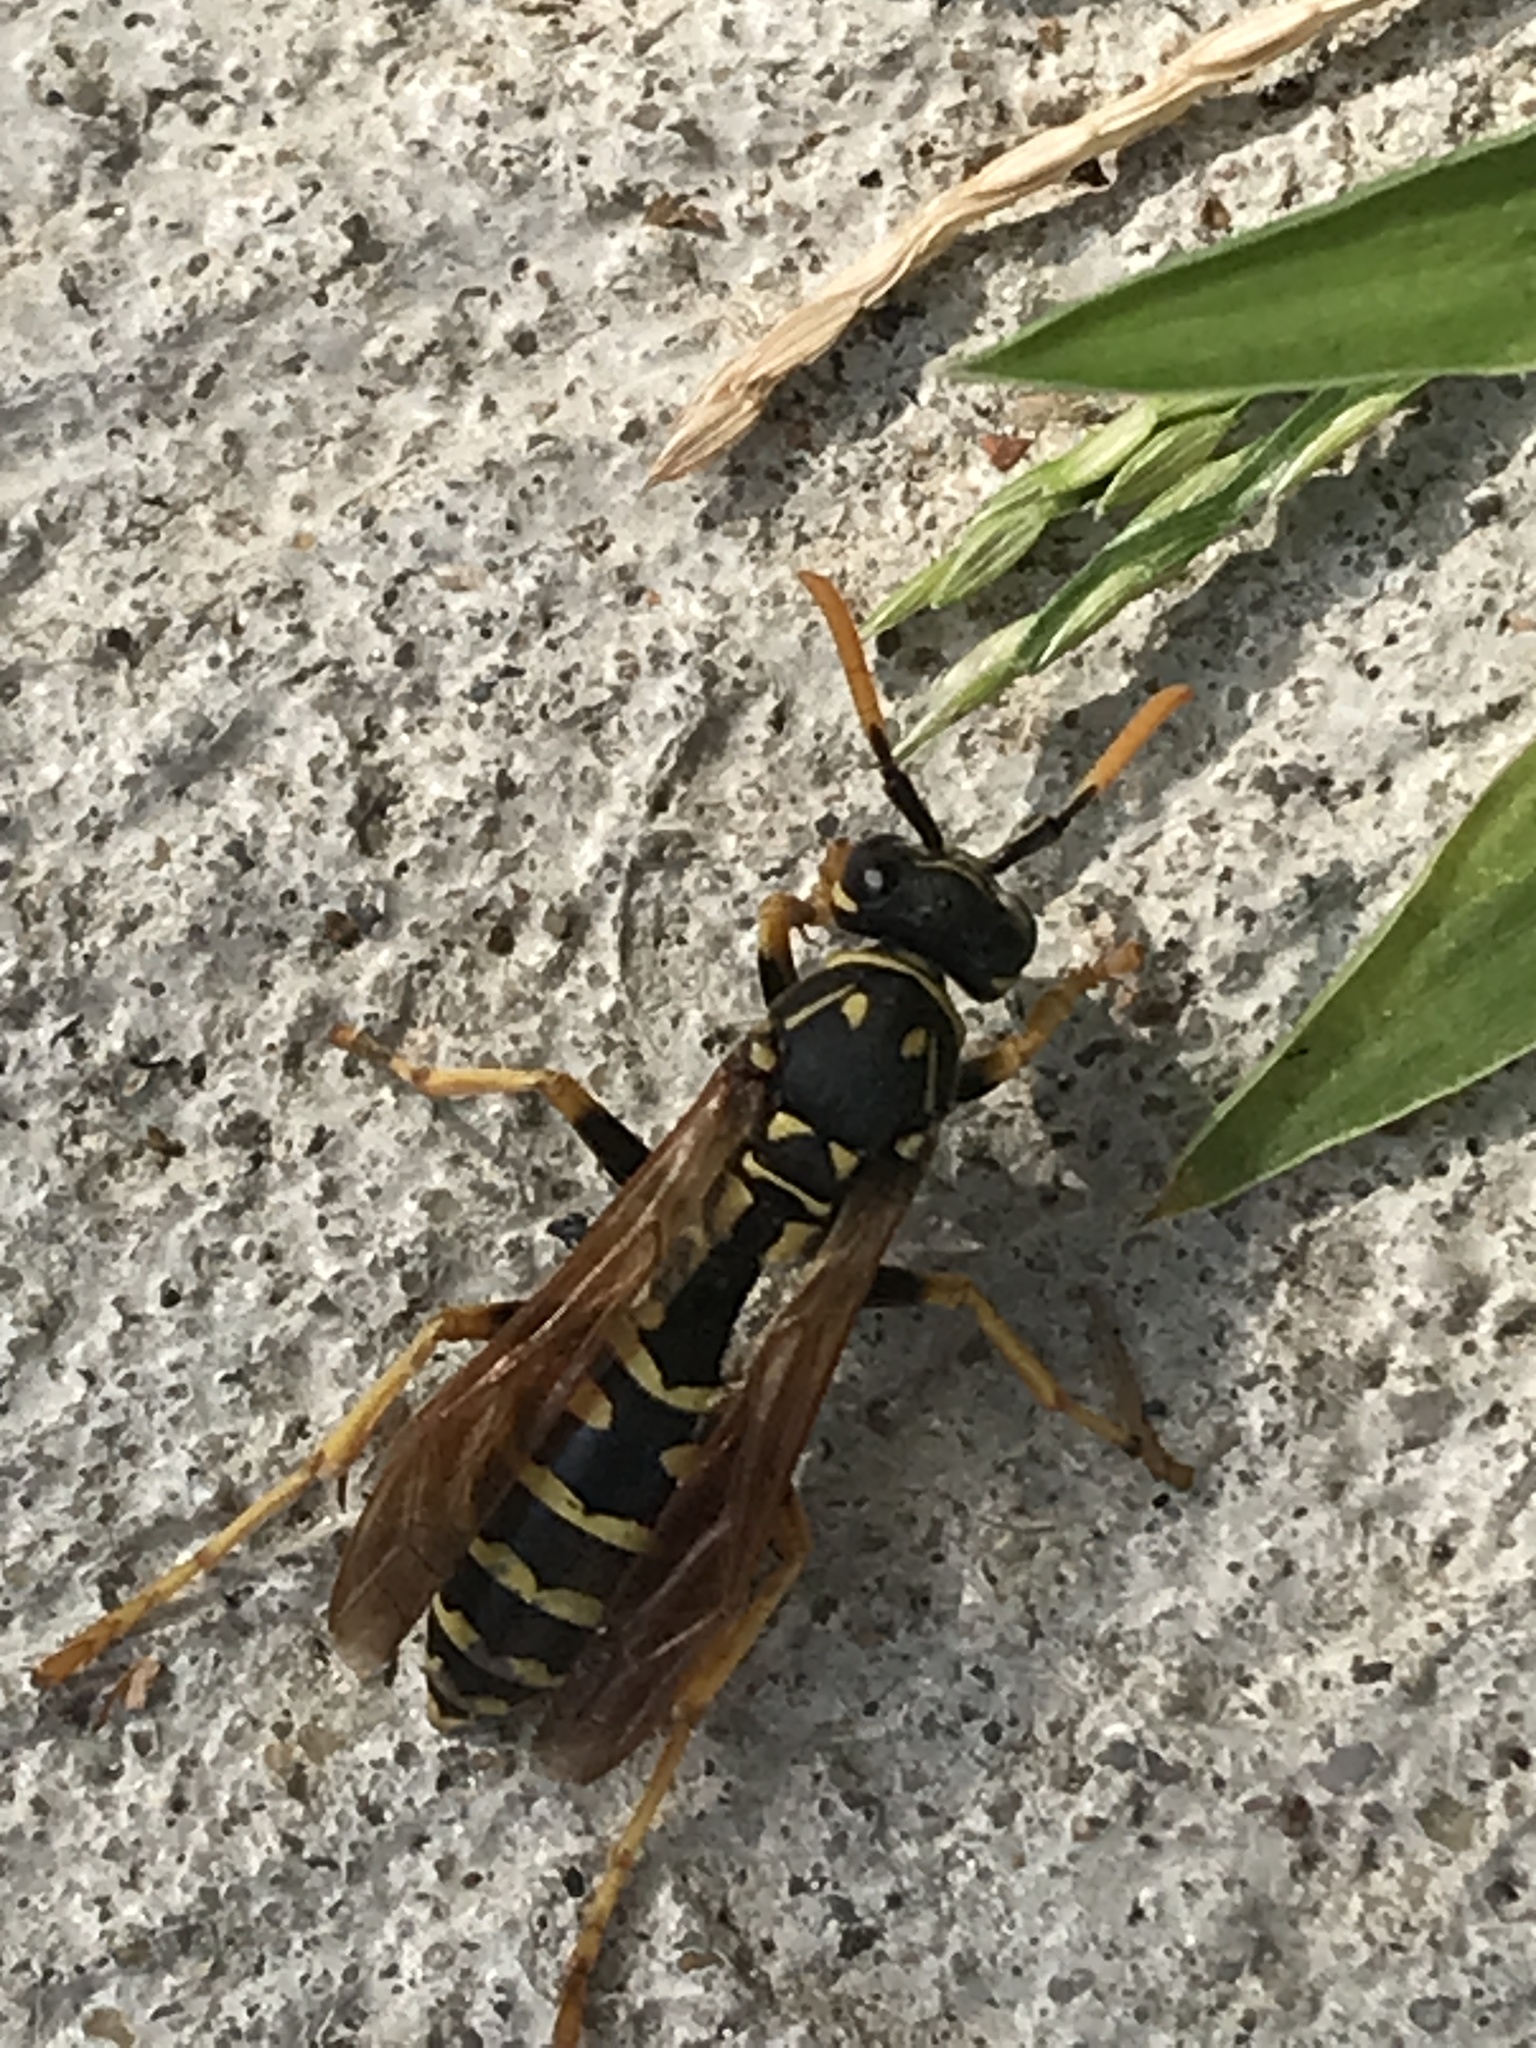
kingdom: Animalia
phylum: Arthropoda
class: Insecta
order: Hymenoptera
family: Eumenidae
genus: Polistes
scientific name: Polistes dominula
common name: Paper wasp
